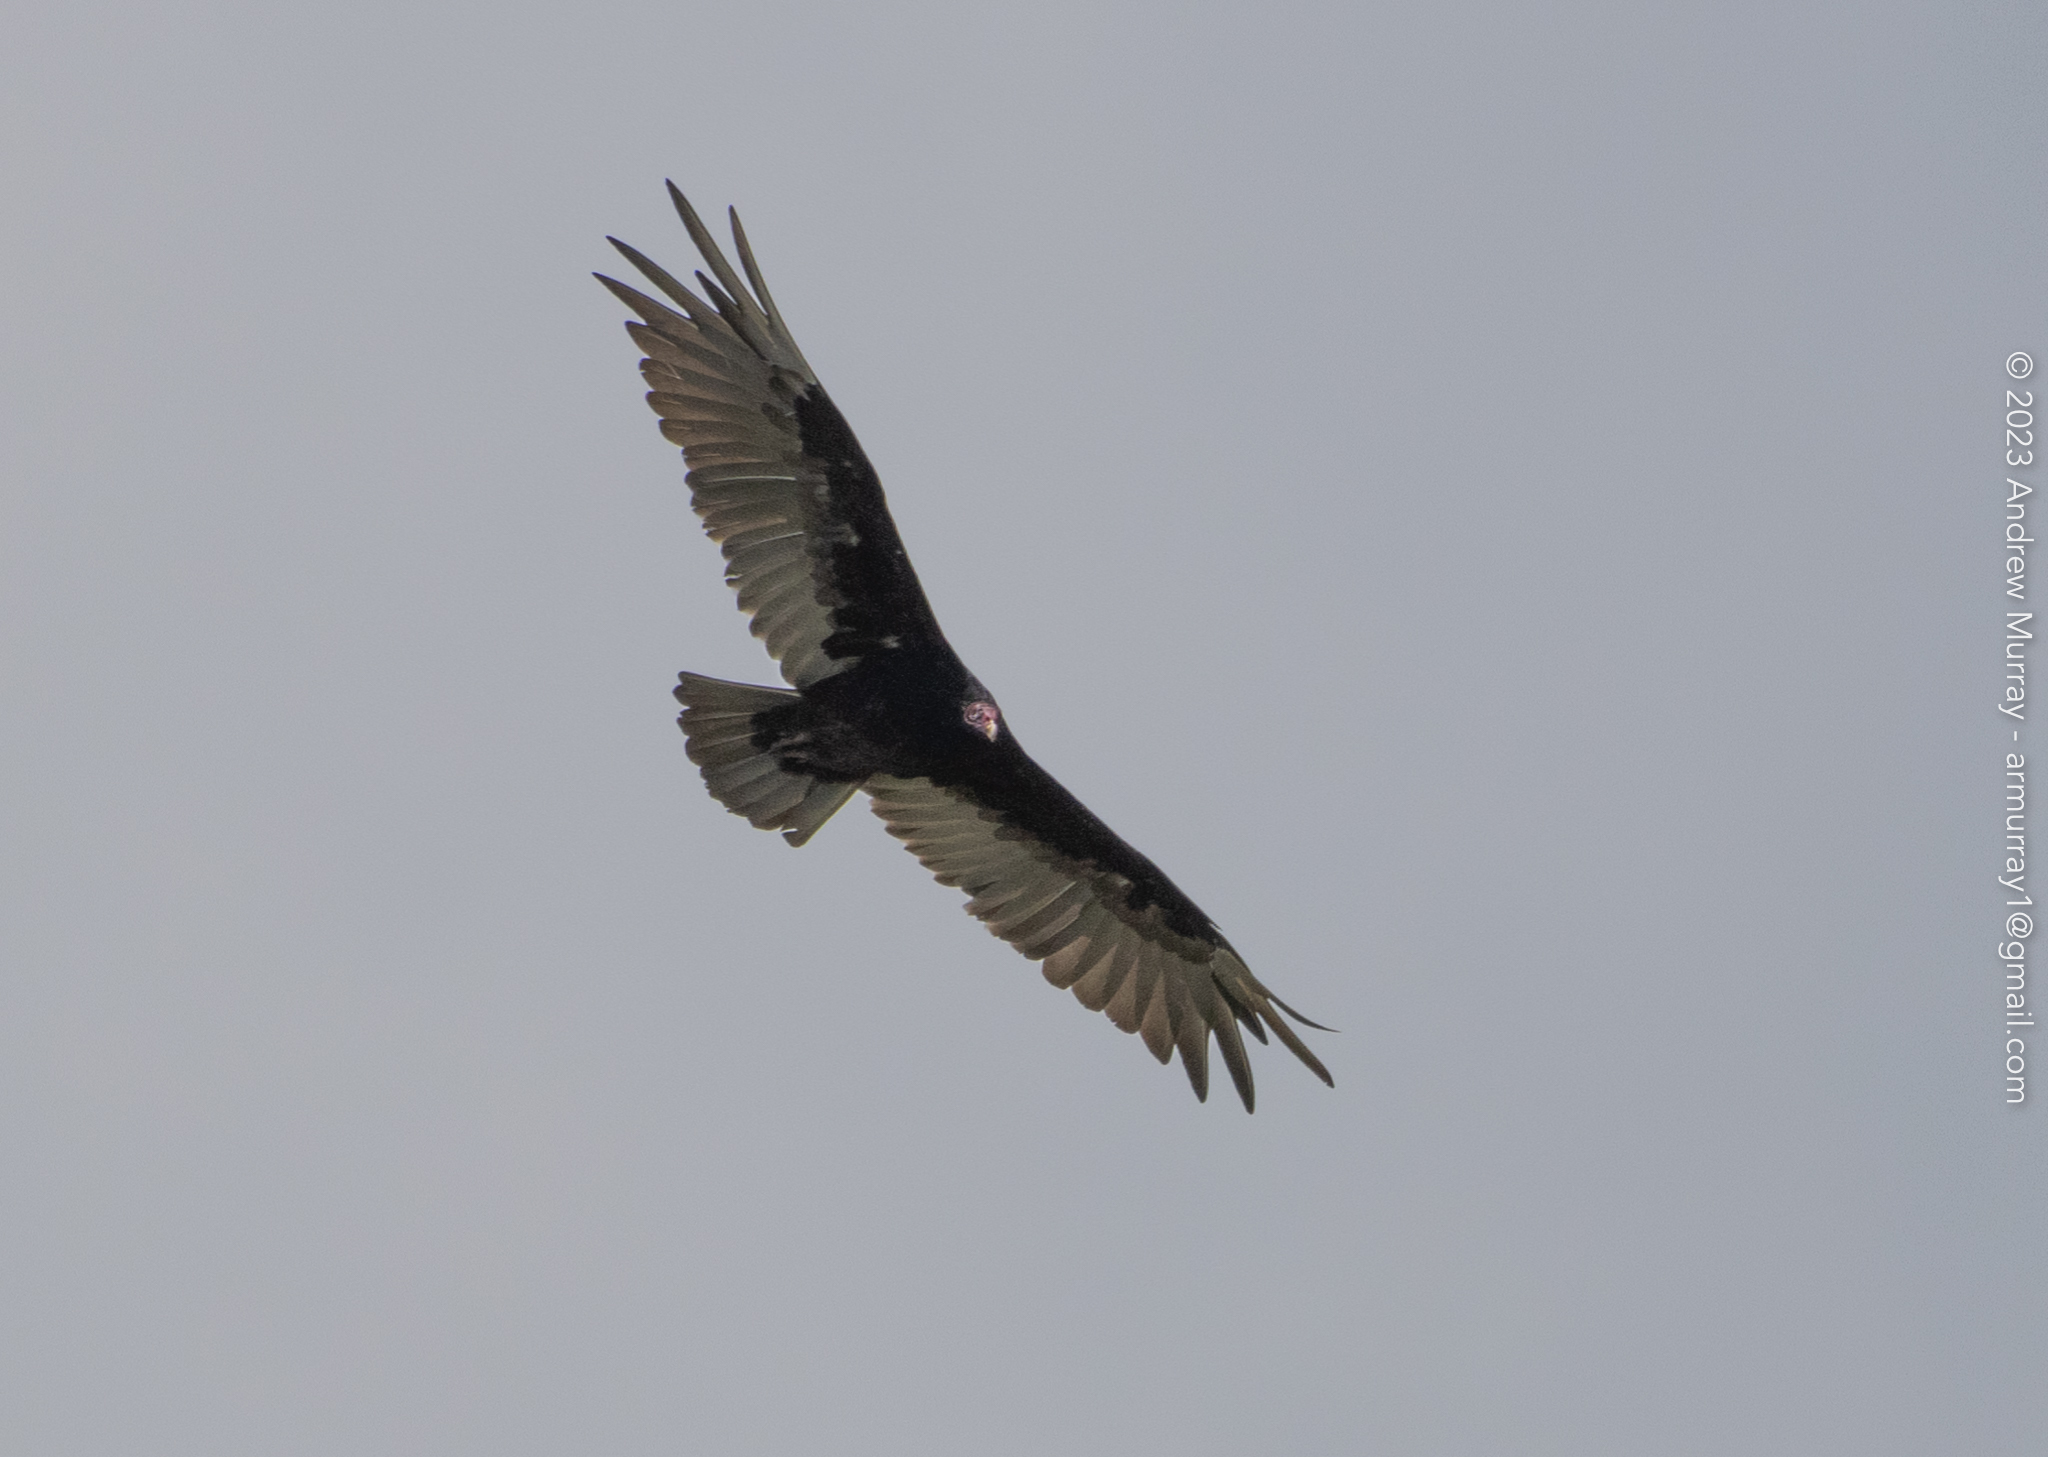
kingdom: Animalia
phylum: Chordata
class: Aves
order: Accipitriformes
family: Cathartidae
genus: Cathartes
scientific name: Cathartes aura
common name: Turkey vulture
